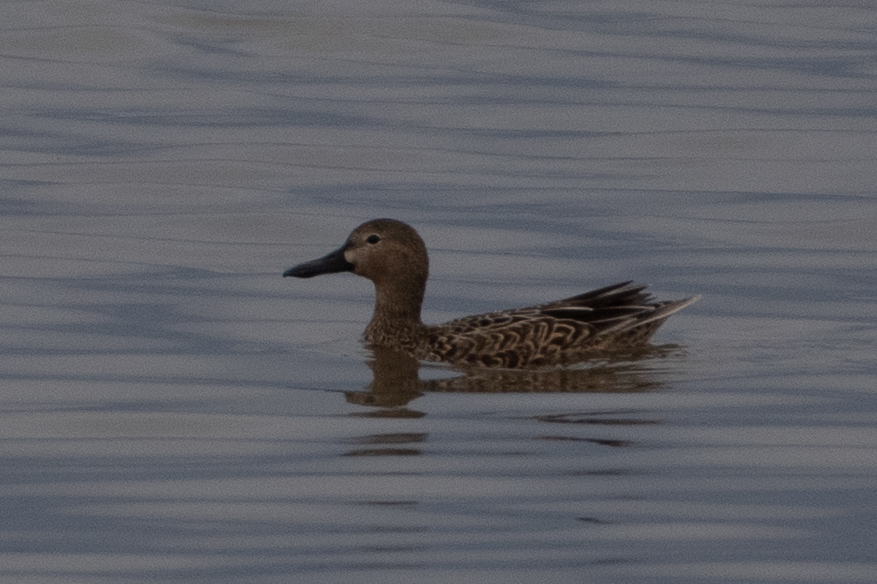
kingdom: Animalia
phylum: Chordata
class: Aves
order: Anseriformes
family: Anatidae
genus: Spatula
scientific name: Spatula cyanoptera
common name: Cinnamon teal
